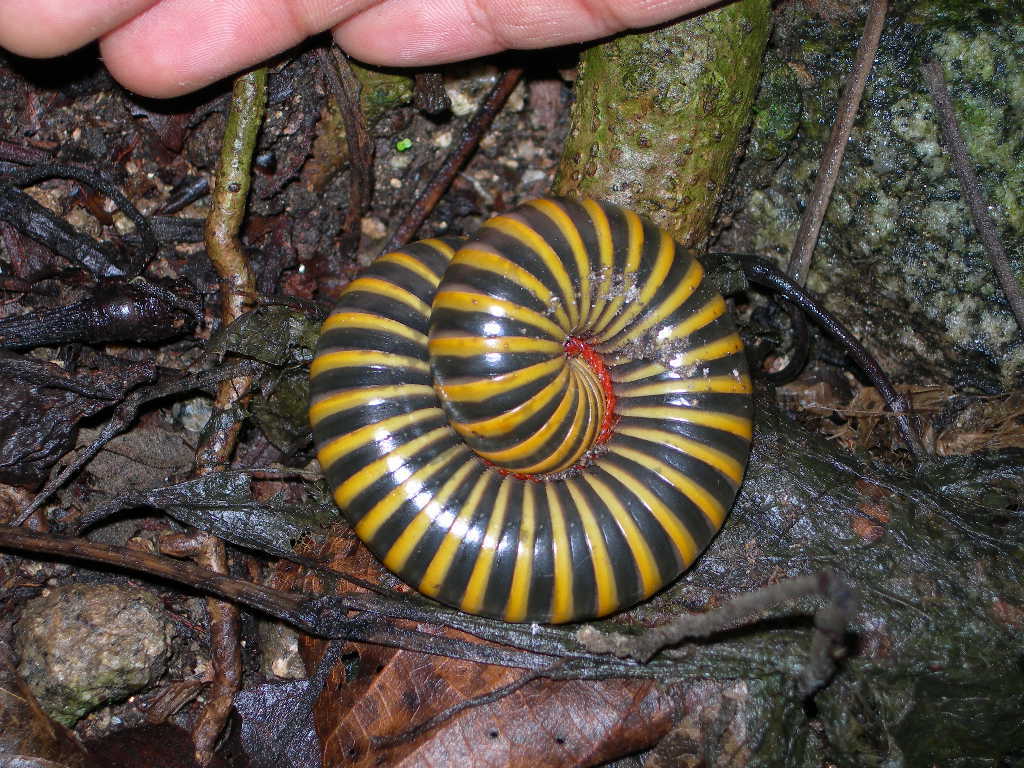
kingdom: Animalia
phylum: Arthropoda
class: Diplopoda
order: Spirobolida
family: Messicobolidae
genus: Messicobolus
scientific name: Messicobolus magnificus
